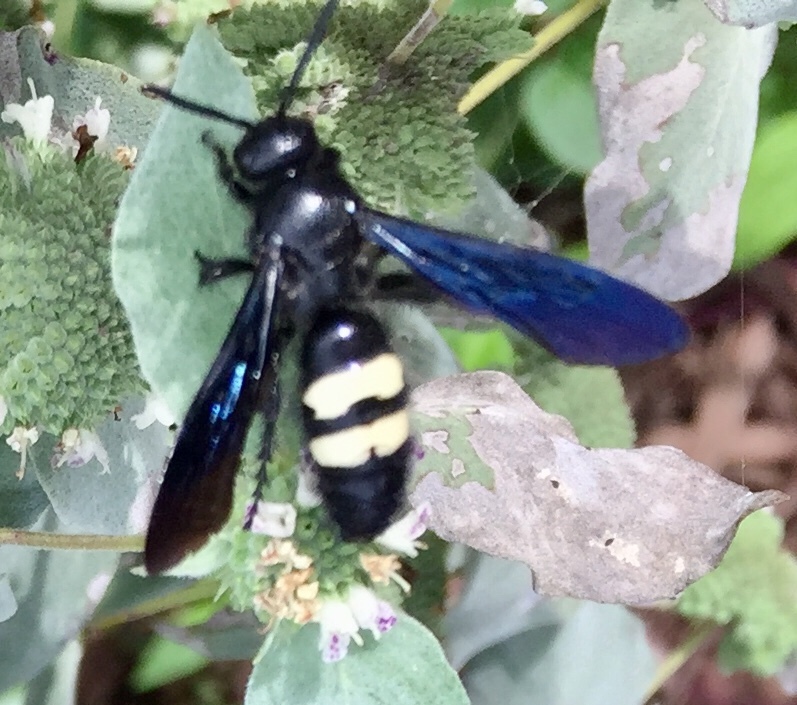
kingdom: Animalia
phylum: Arthropoda
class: Insecta
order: Hymenoptera
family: Scoliidae
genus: Scolia
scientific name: Scolia bicincta
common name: Double-banded scoliid wasp
